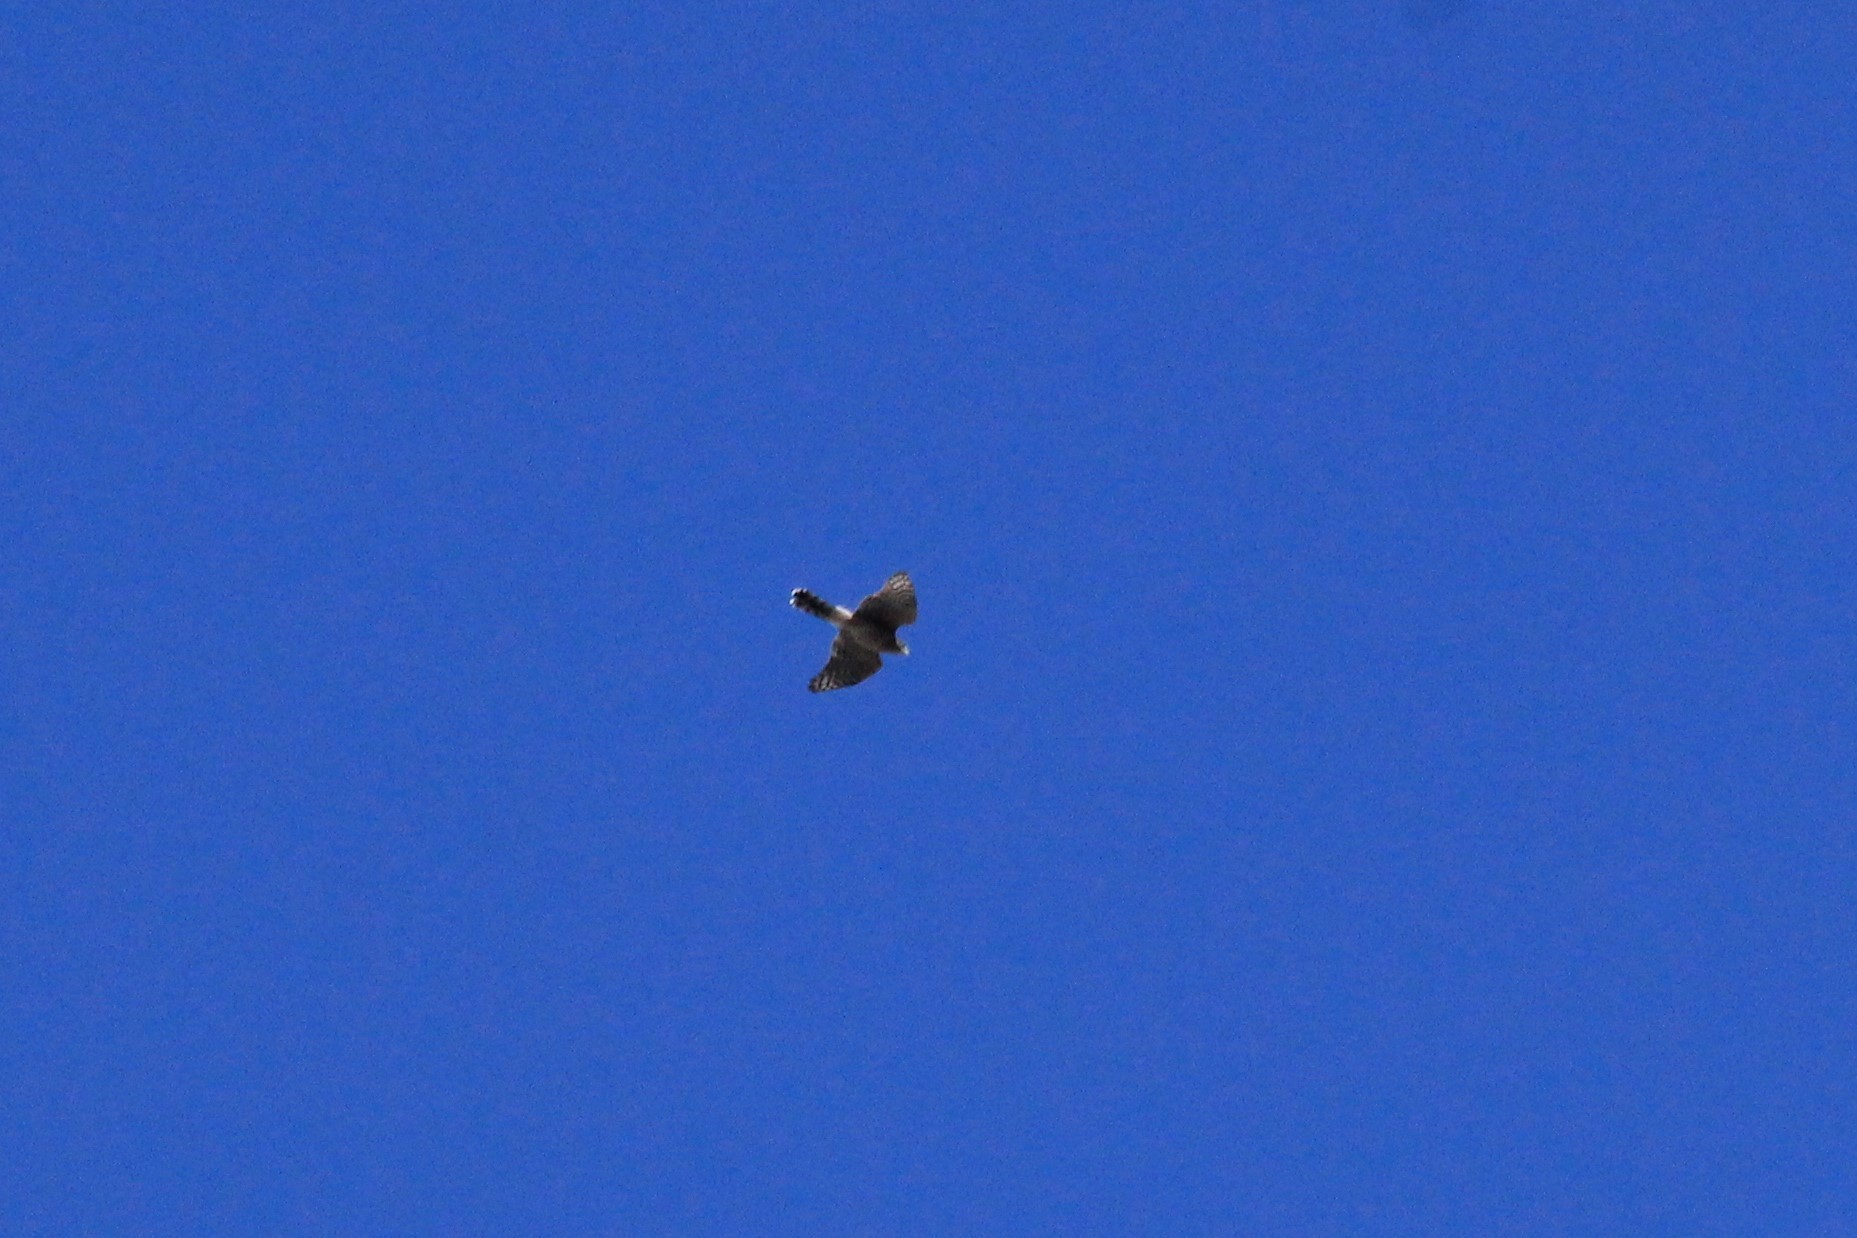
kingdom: Animalia
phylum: Chordata
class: Aves
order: Accipitriformes
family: Accipitridae
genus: Accipiter
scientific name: Accipiter cooperii
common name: Cooper's hawk
